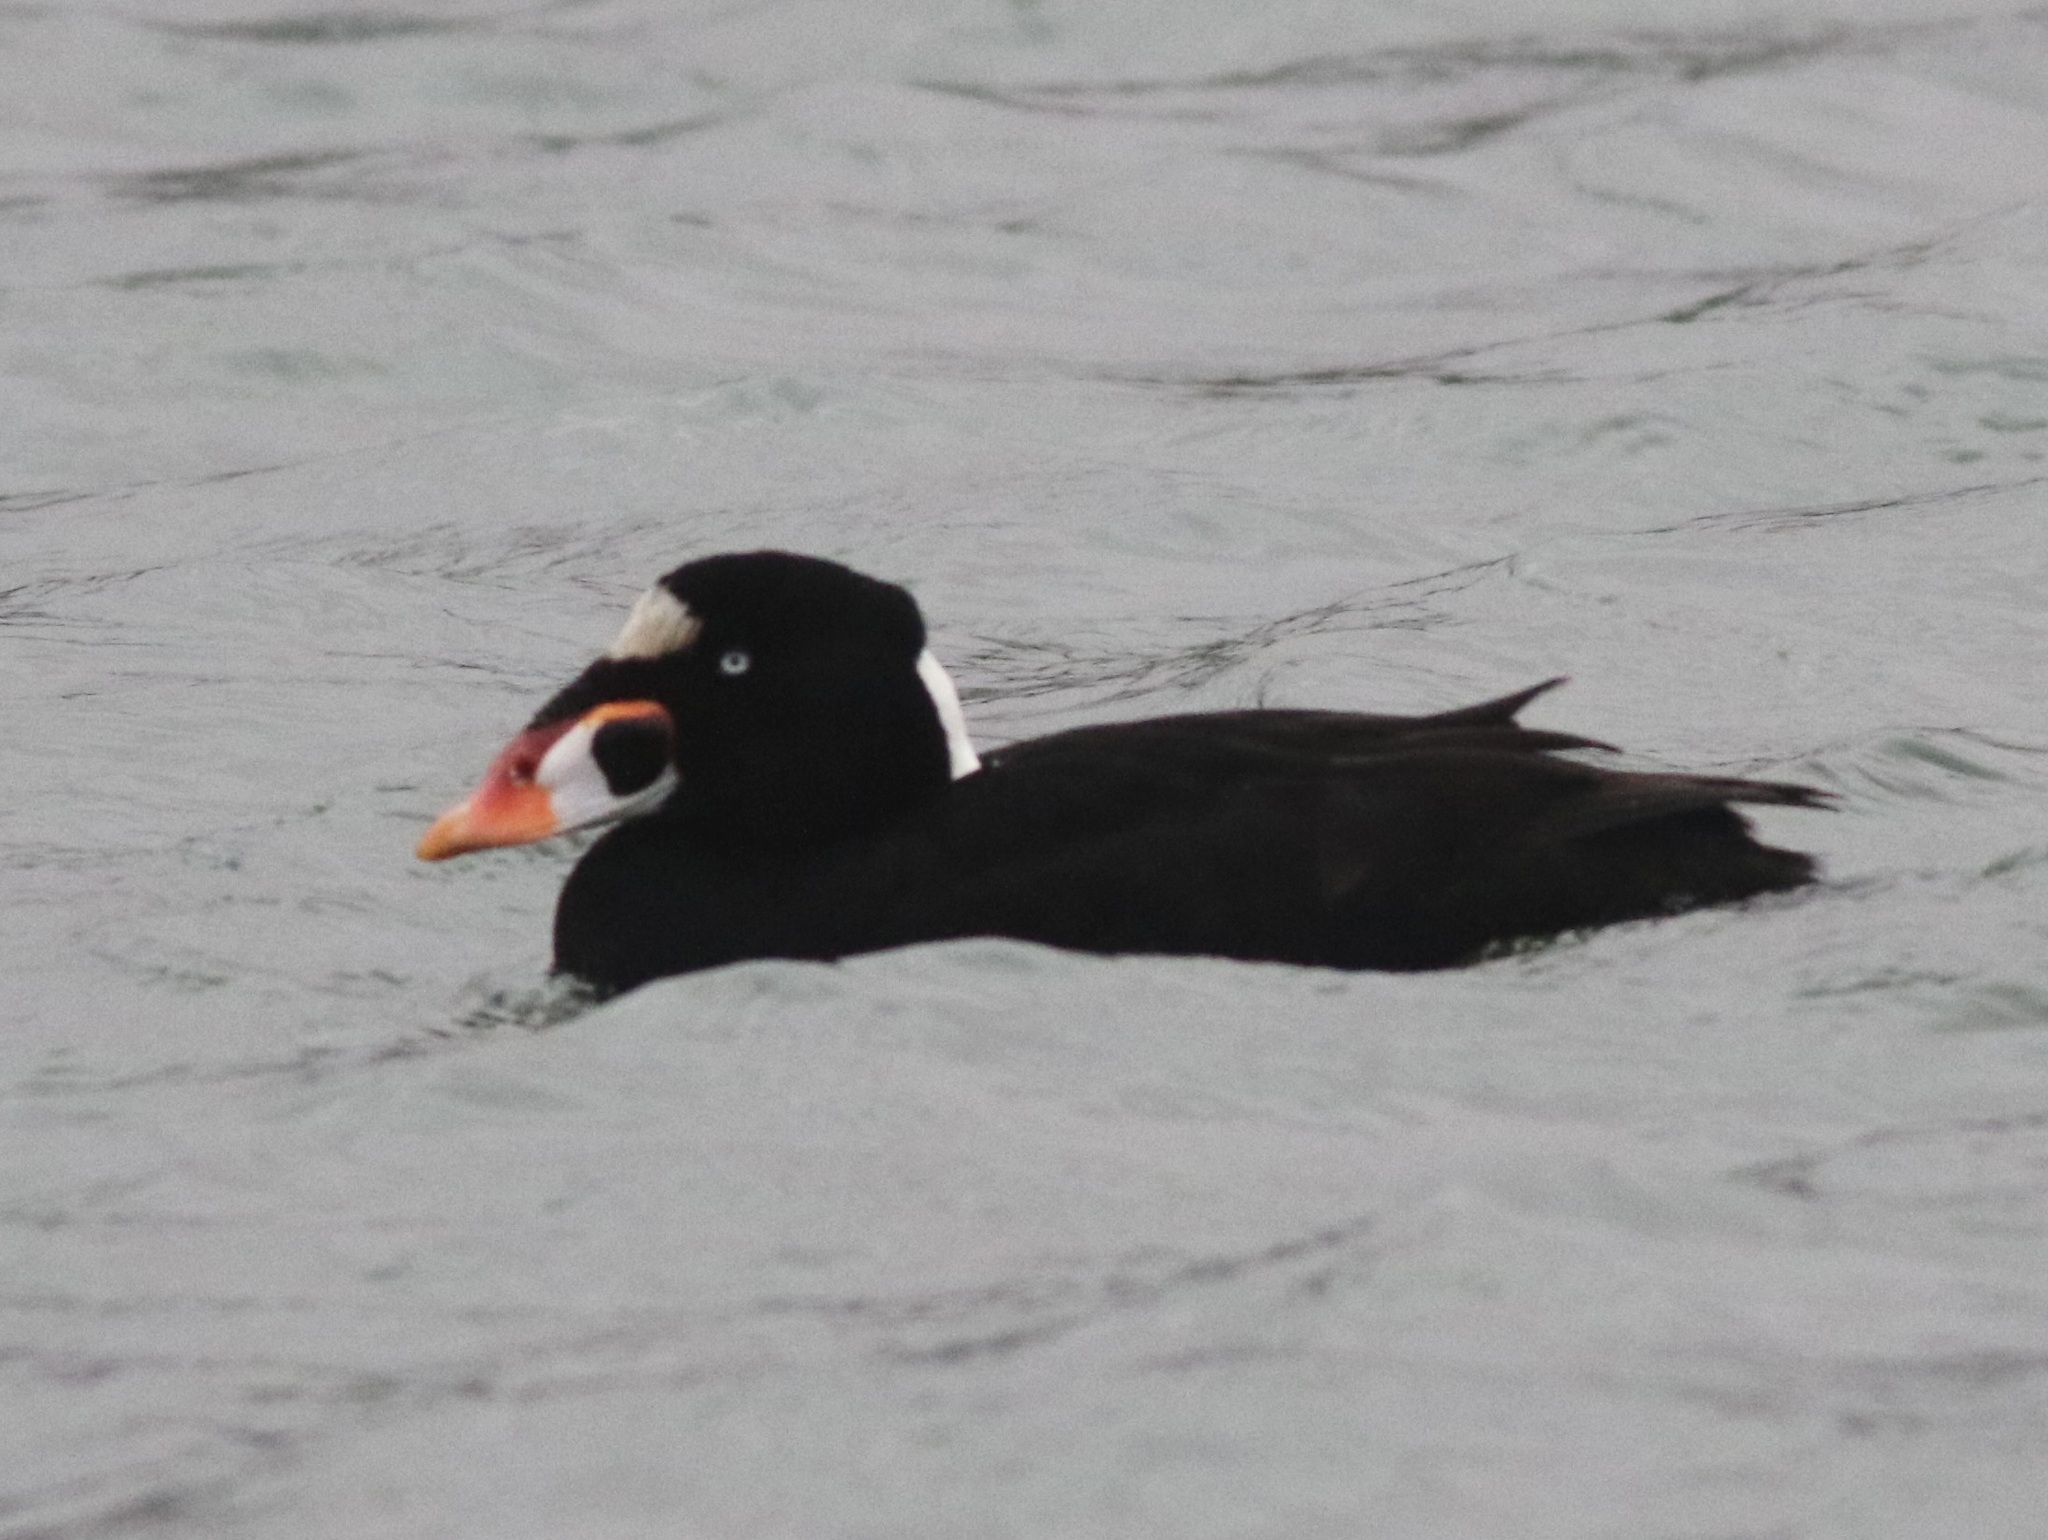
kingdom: Animalia
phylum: Chordata
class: Aves
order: Anseriformes
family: Anatidae
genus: Melanitta
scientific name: Melanitta perspicillata
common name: Surf scoter
